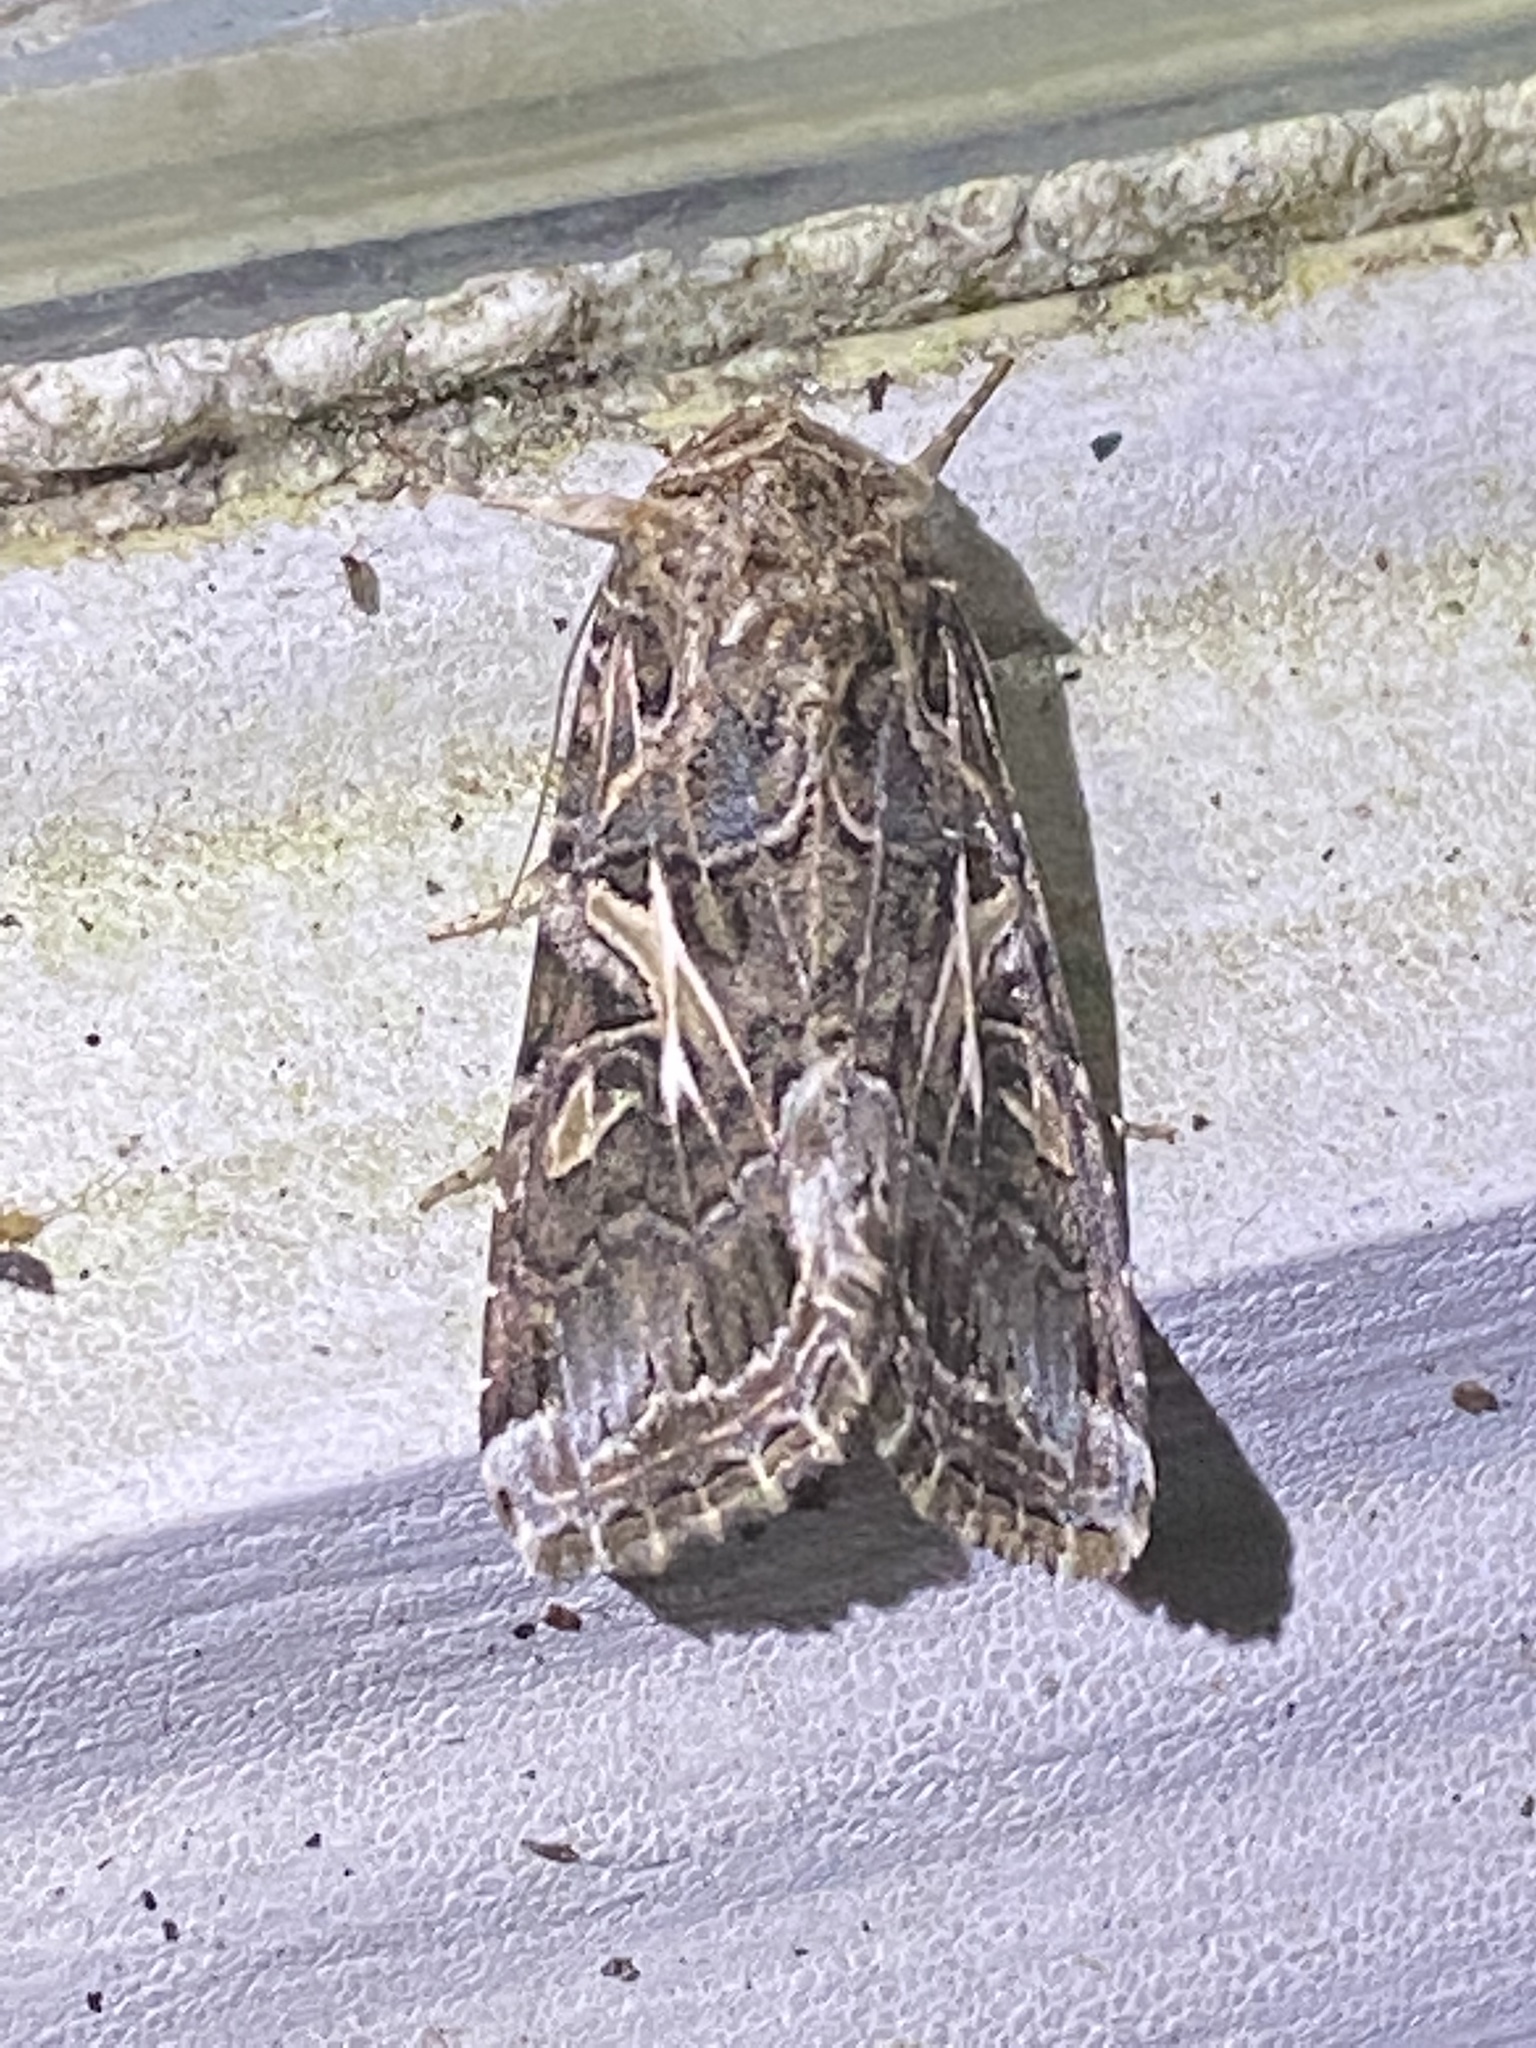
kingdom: Animalia
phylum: Arthropoda
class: Insecta
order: Lepidoptera
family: Noctuidae
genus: Spodoptera
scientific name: Spodoptera ornithogalli
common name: Yellow-striped armyworm
